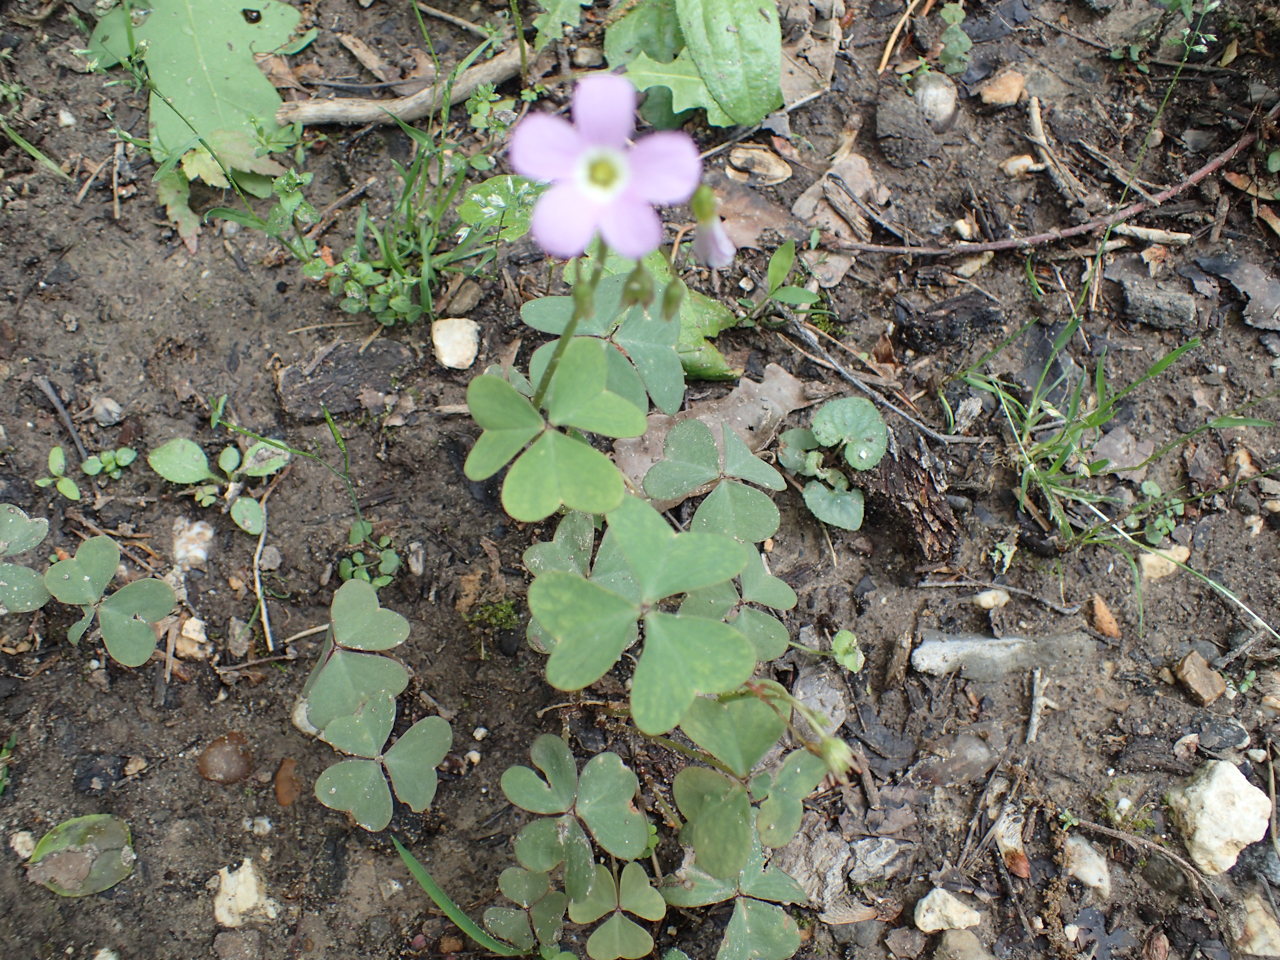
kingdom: Plantae
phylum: Tracheophyta
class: Magnoliopsida
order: Oxalidales
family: Oxalidaceae
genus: Oxalis
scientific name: Oxalis violacea
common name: Violet wood-sorrel
